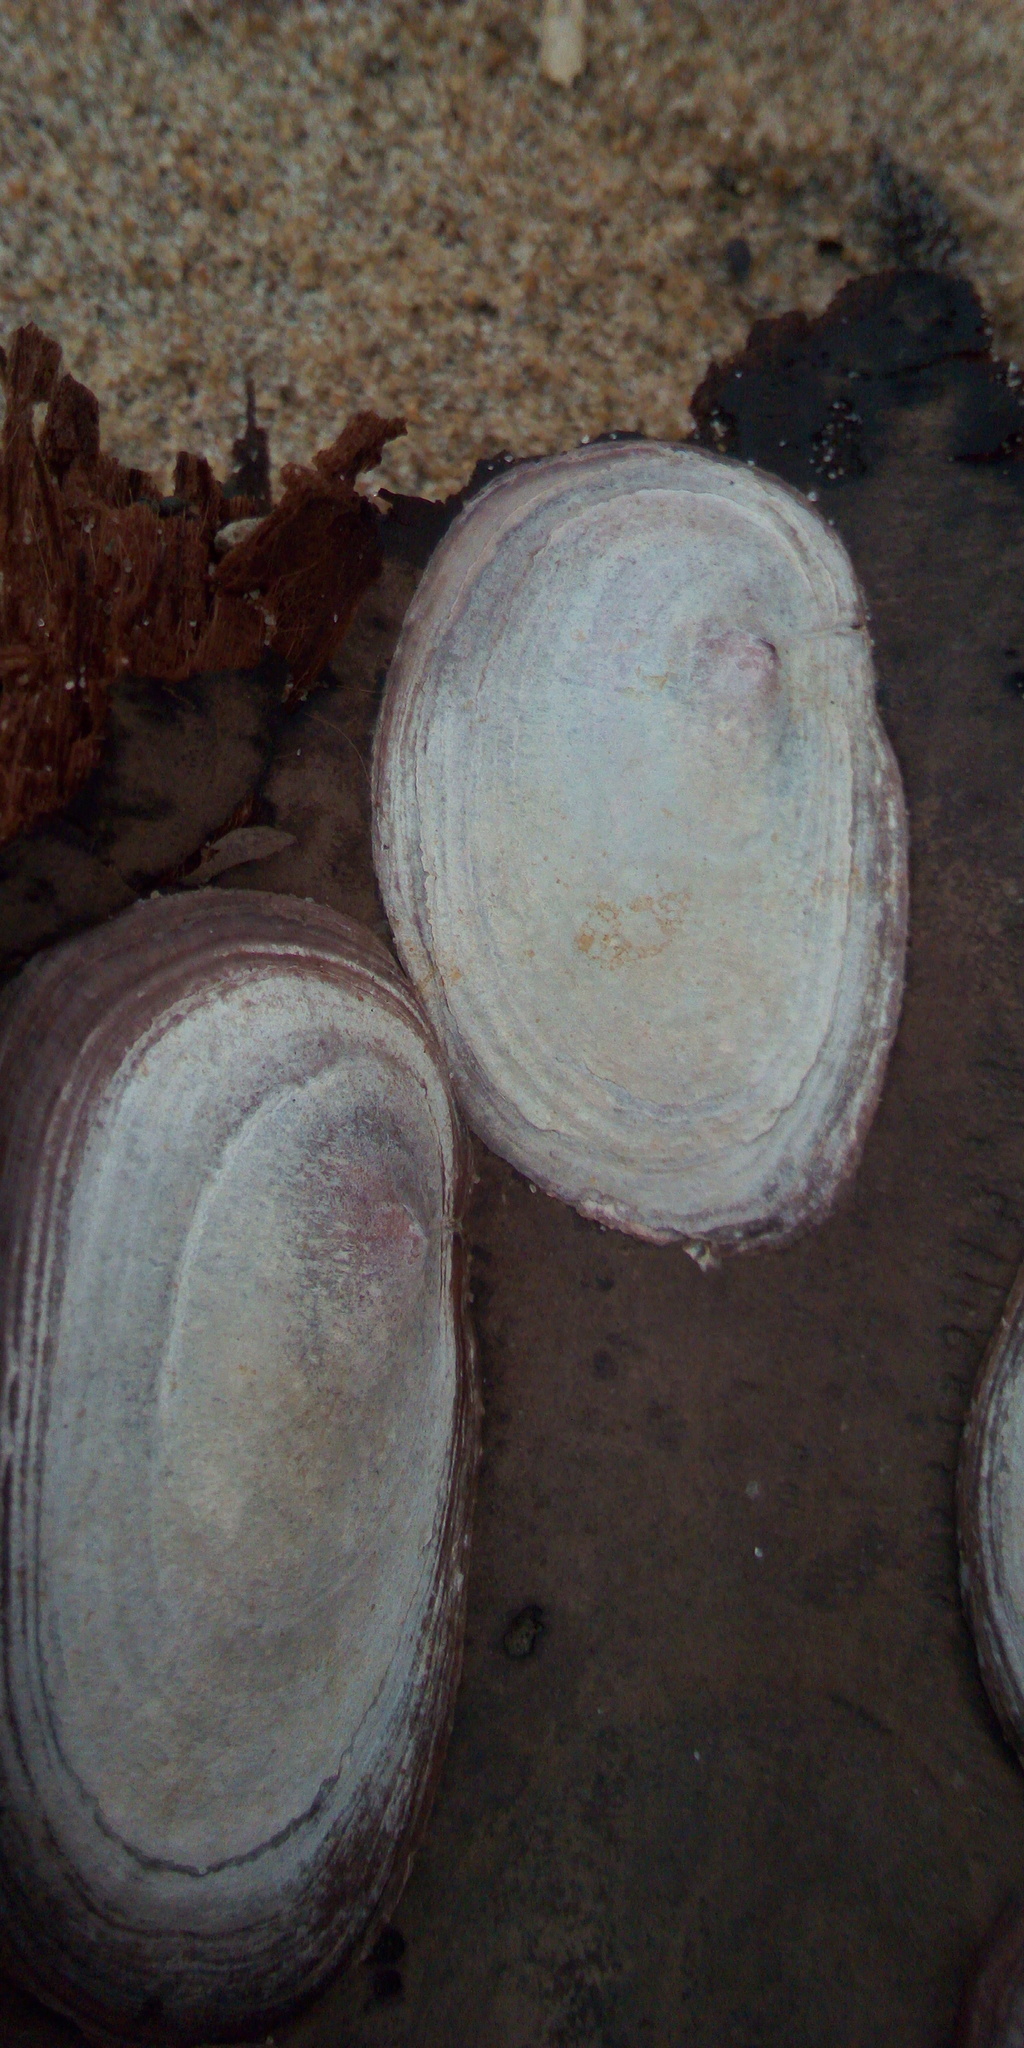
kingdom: Animalia
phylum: Mollusca
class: Bivalvia
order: Pectinida
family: Anomiidae
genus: Enigmonia
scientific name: Enigmonia aenigmatica
